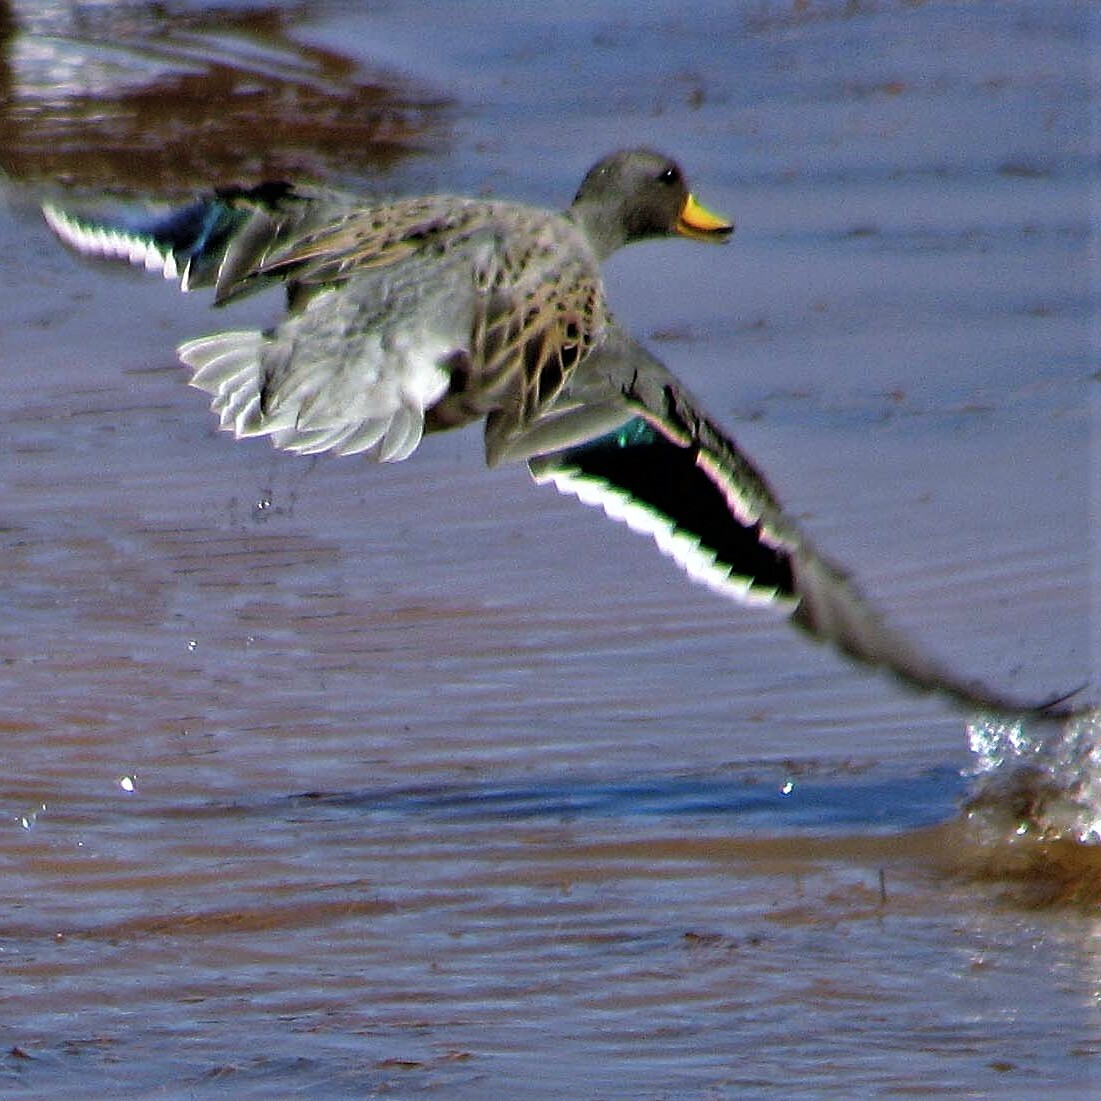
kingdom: Animalia
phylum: Chordata
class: Aves
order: Anseriformes
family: Anatidae
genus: Anas
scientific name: Anas flavirostris
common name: Yellow-billed teal
